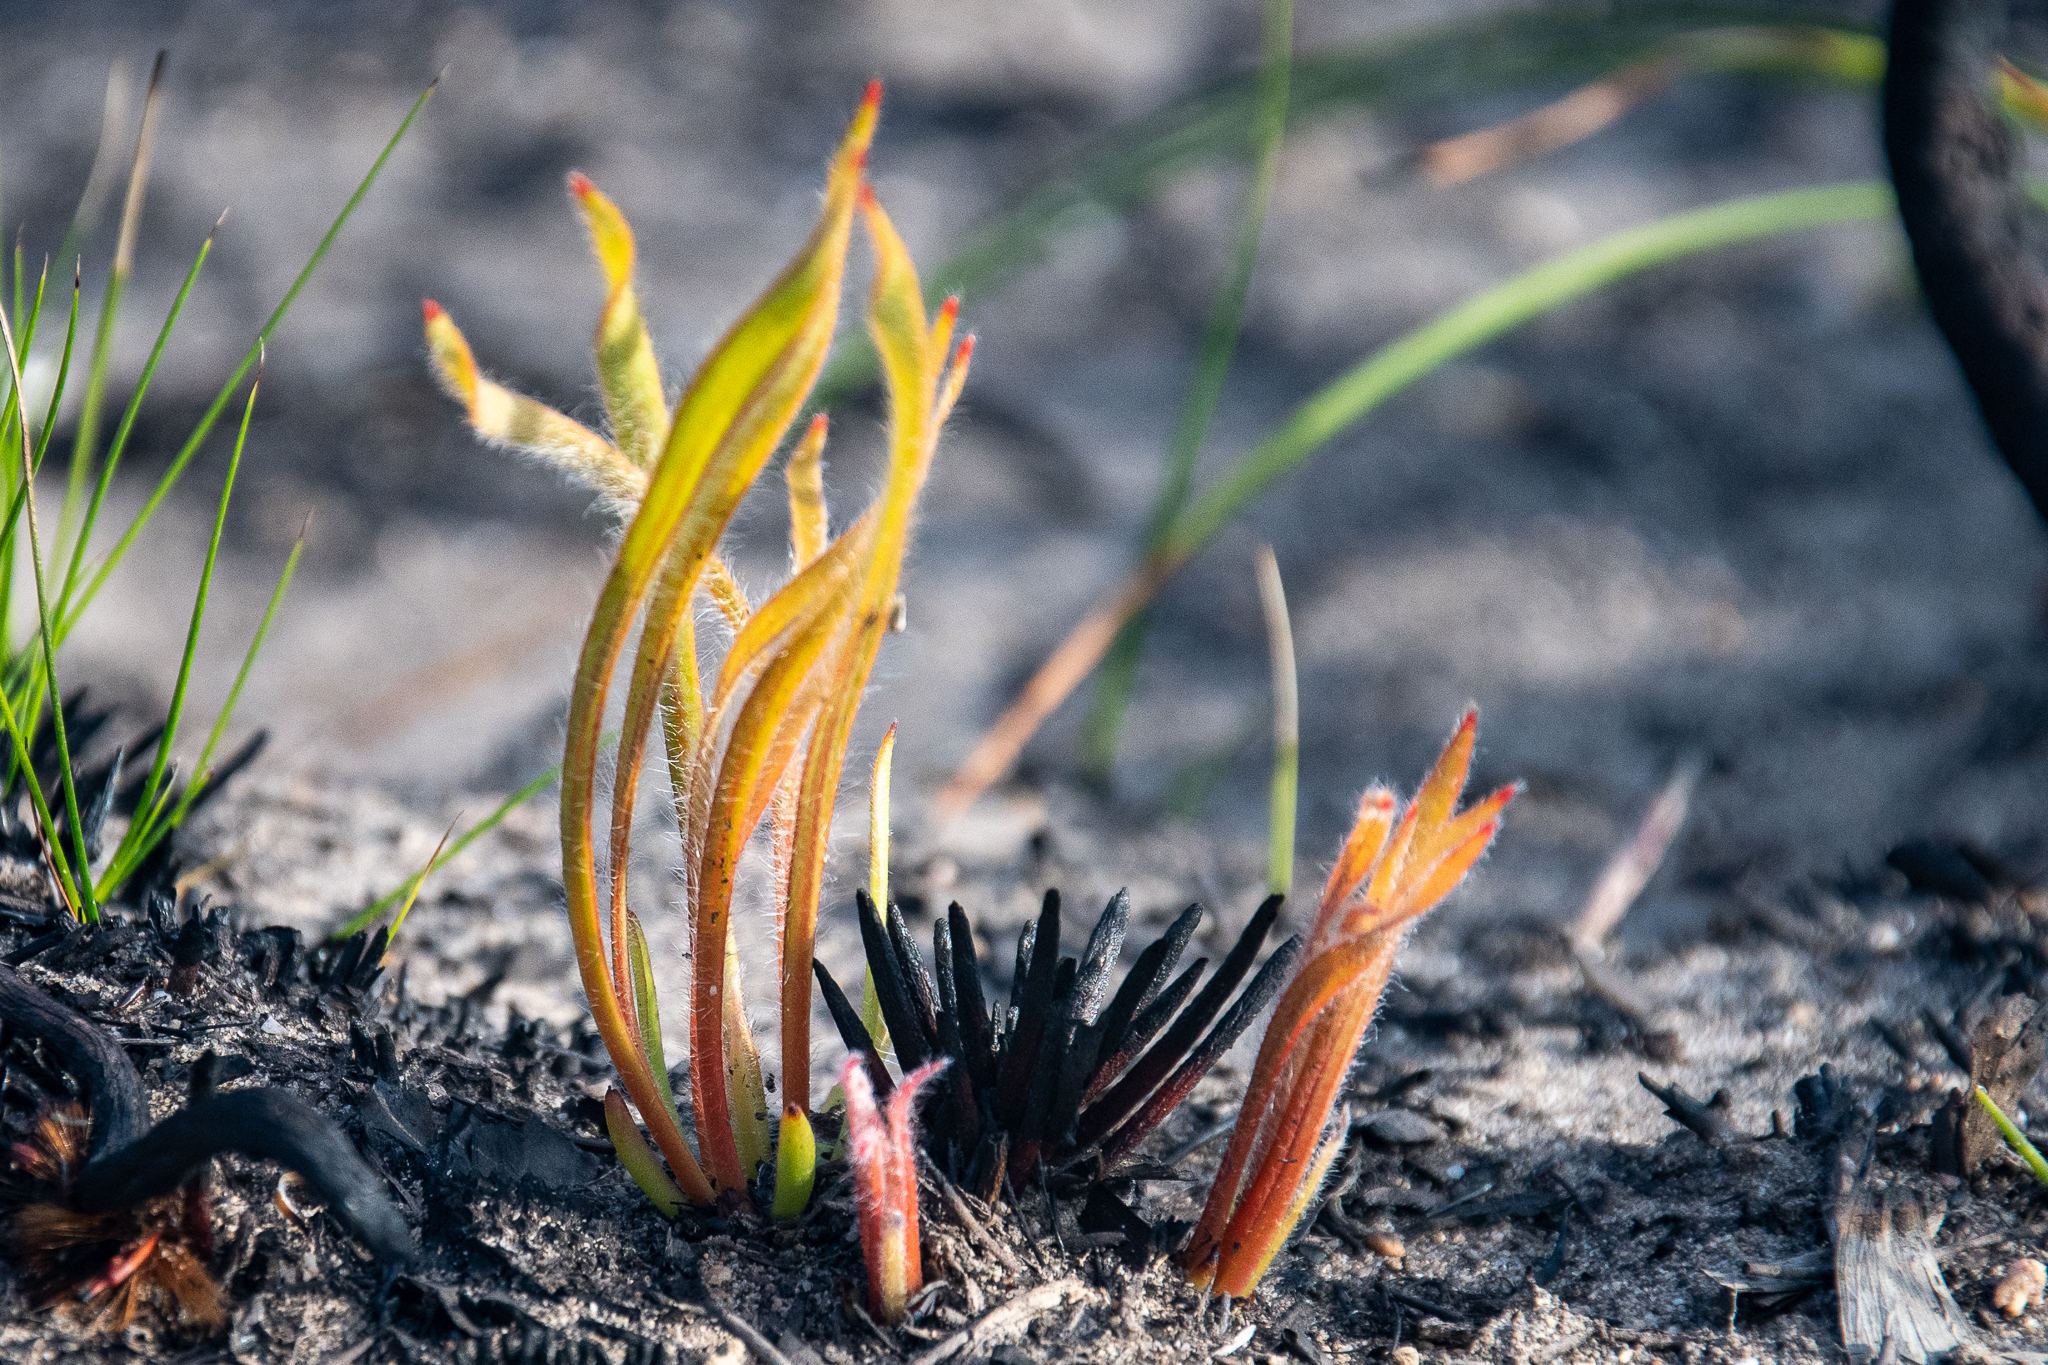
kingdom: Plantae
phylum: Tracheophyta
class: Magnoliopsida
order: Proteales
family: Proteaceae
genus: Protea
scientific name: Protea scabra
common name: Sandpaper-leaf sugarbush
